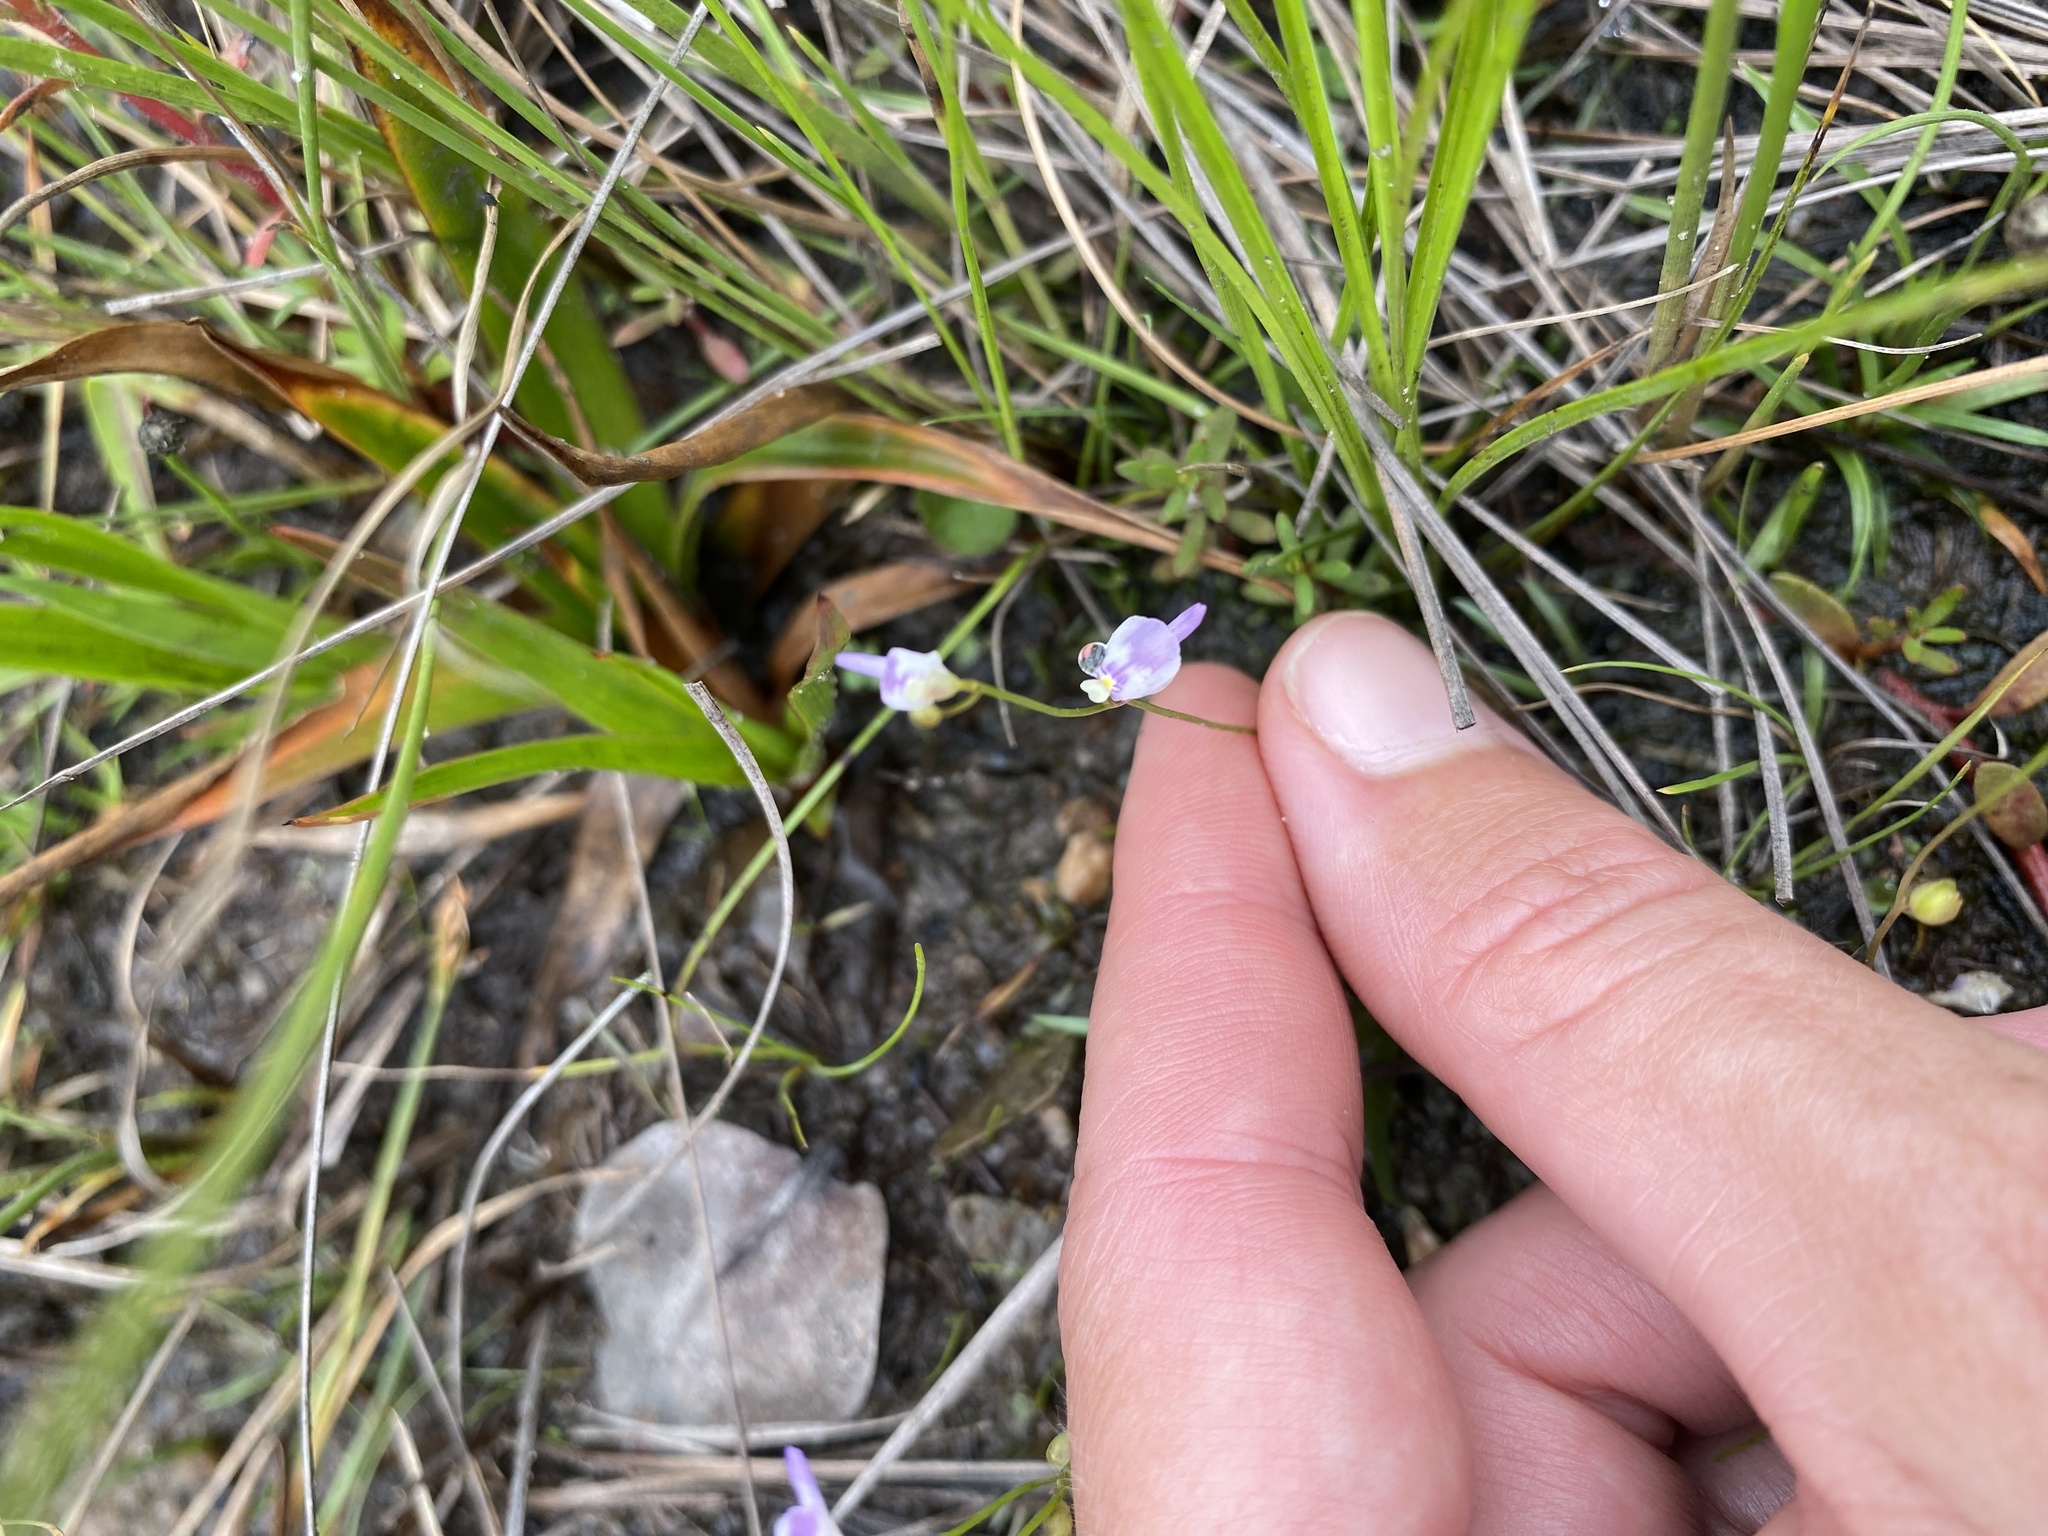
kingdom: Plantae
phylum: Tracheophyta
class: Magnoliopsida
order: Lamiales
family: Lentibulariaceae
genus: Utricularia
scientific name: Utricularia livida
